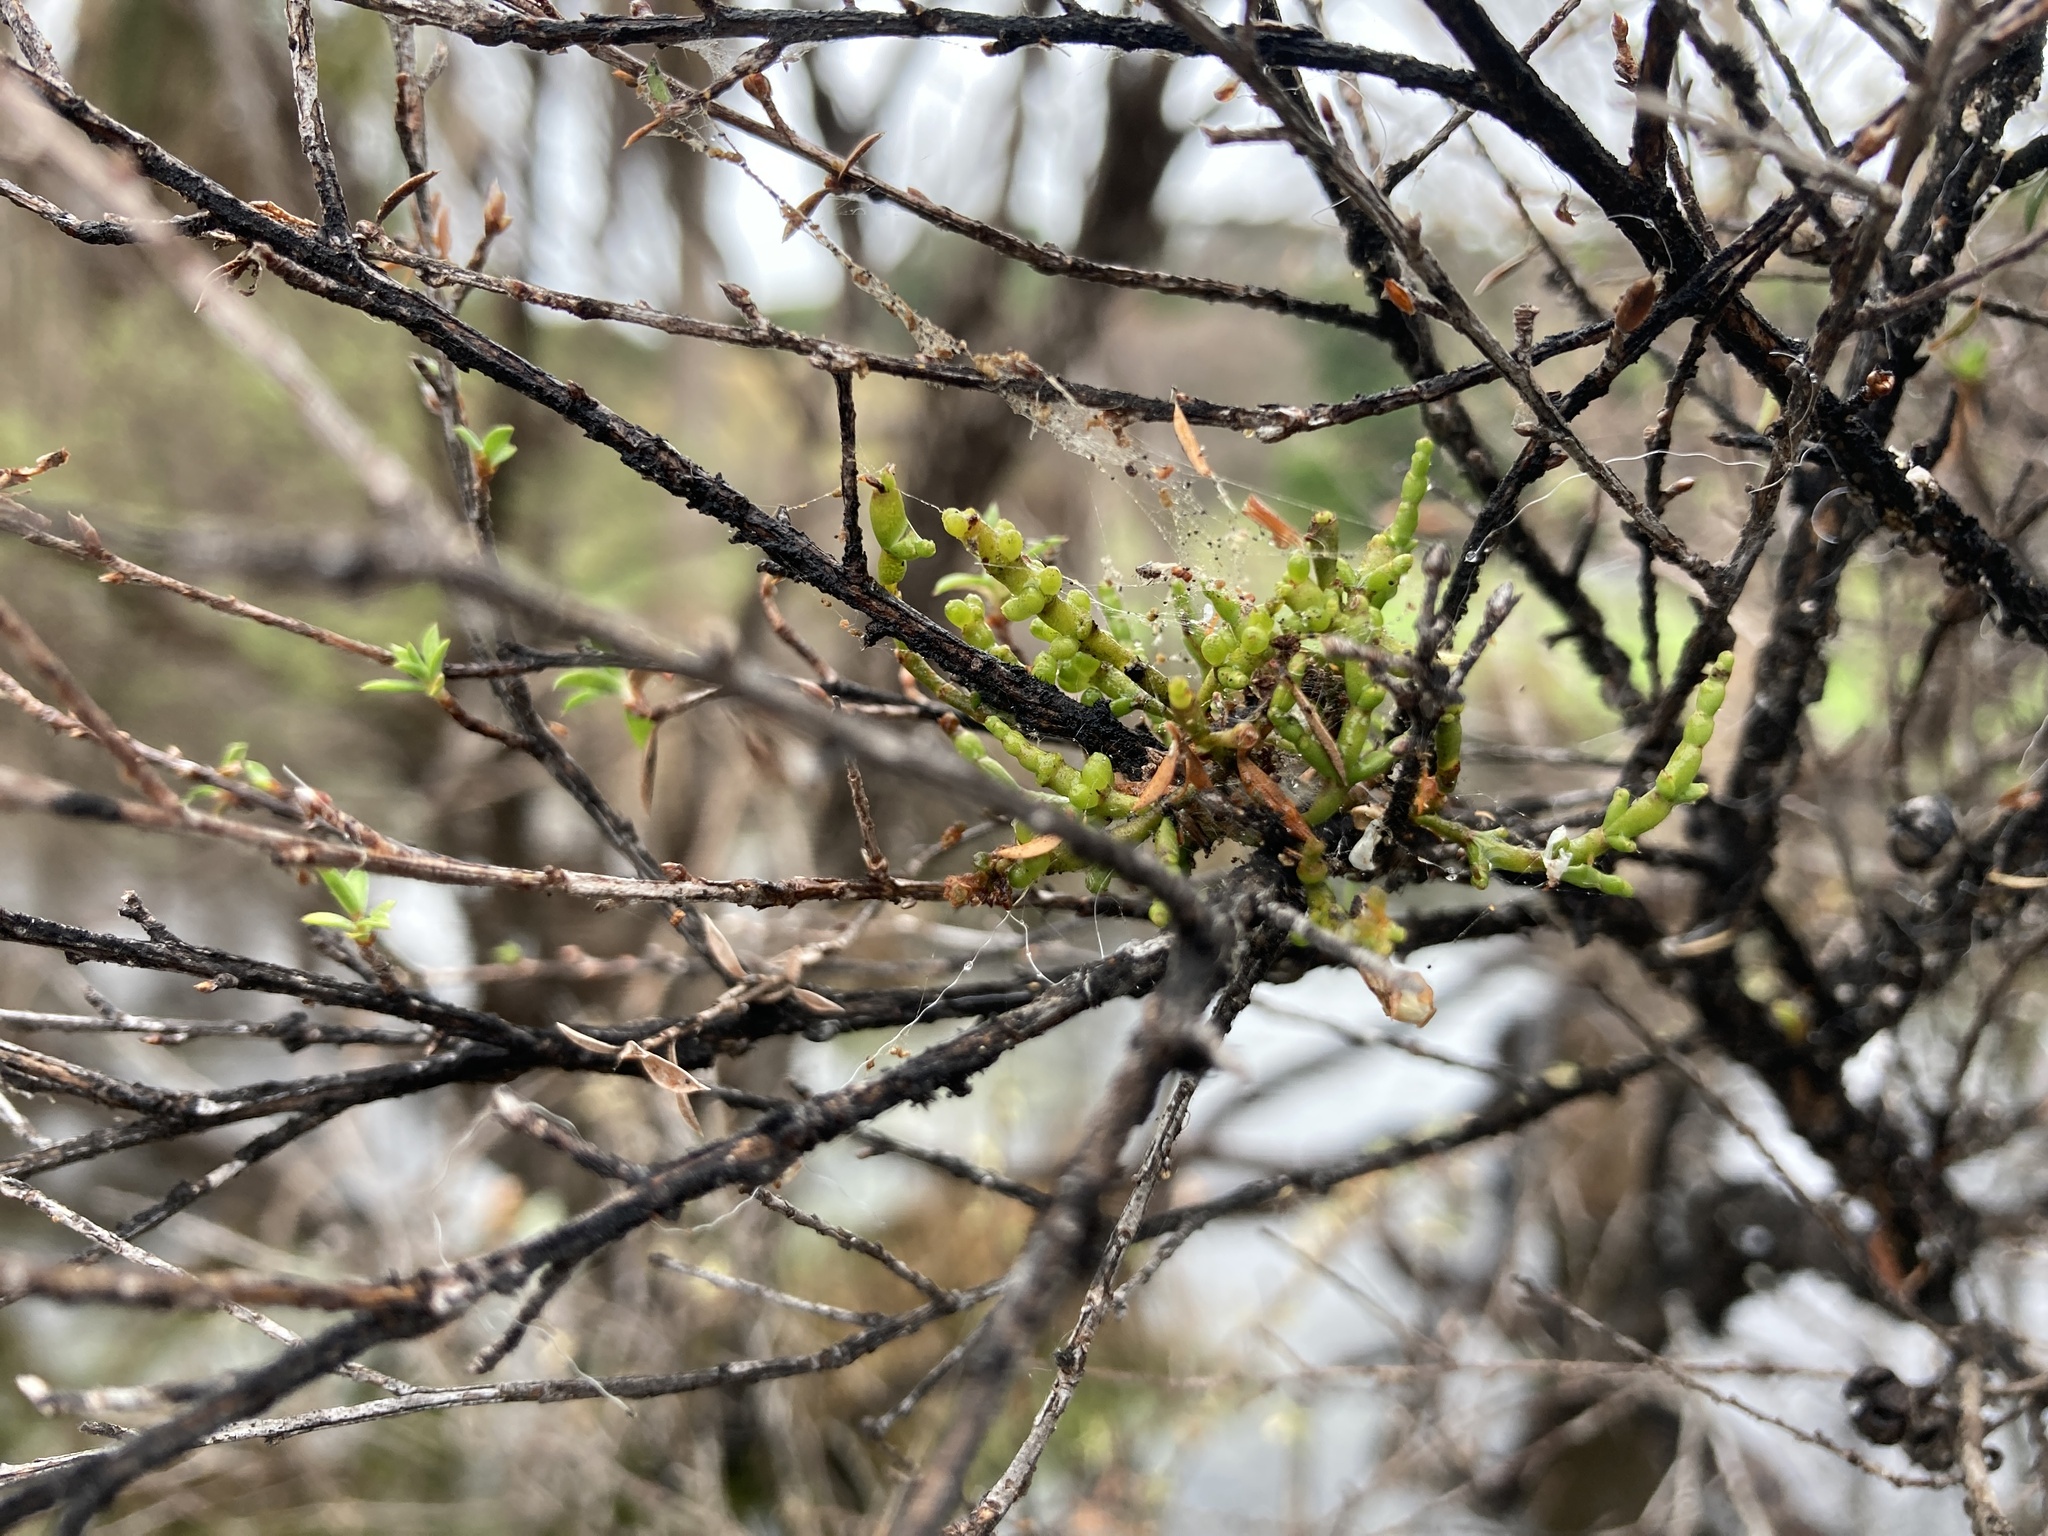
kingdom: Plantae
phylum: Tracheophyta
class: Magnoliopsida
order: Santalales
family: Viscaceae
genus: Korthalsella
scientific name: Korthalsella salicornioides
